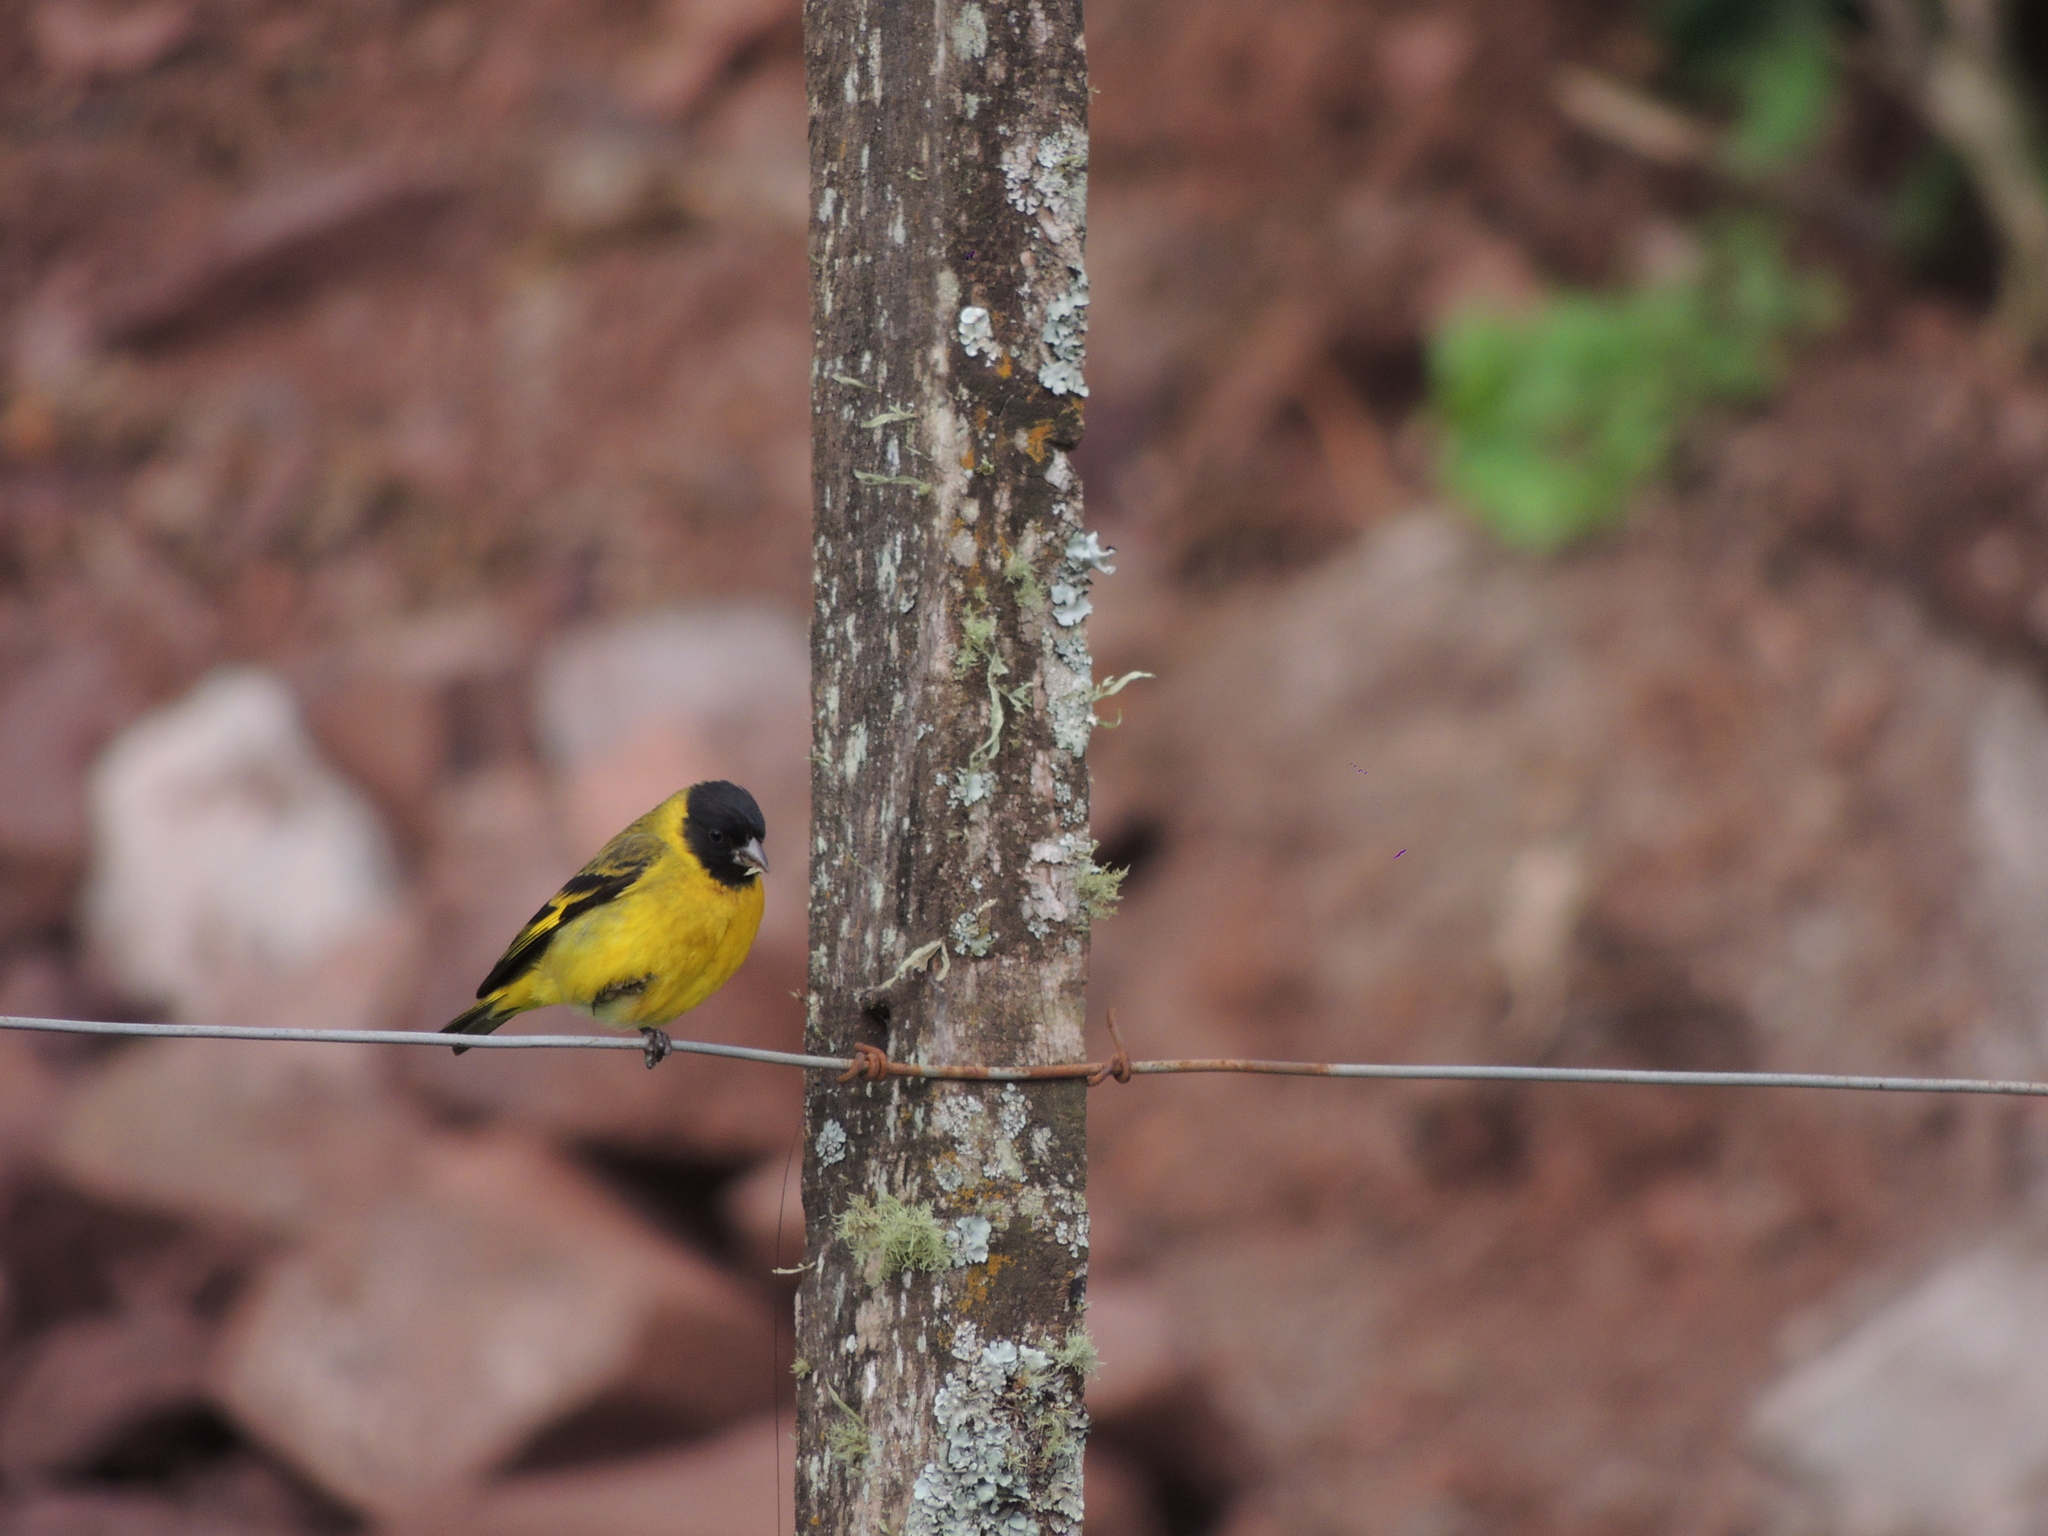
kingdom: Animalia
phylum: Chordata
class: Aves
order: Passeriformes
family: Fringillidae
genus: Spinus
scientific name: Spinus magellanicus
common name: Hooded siskin
